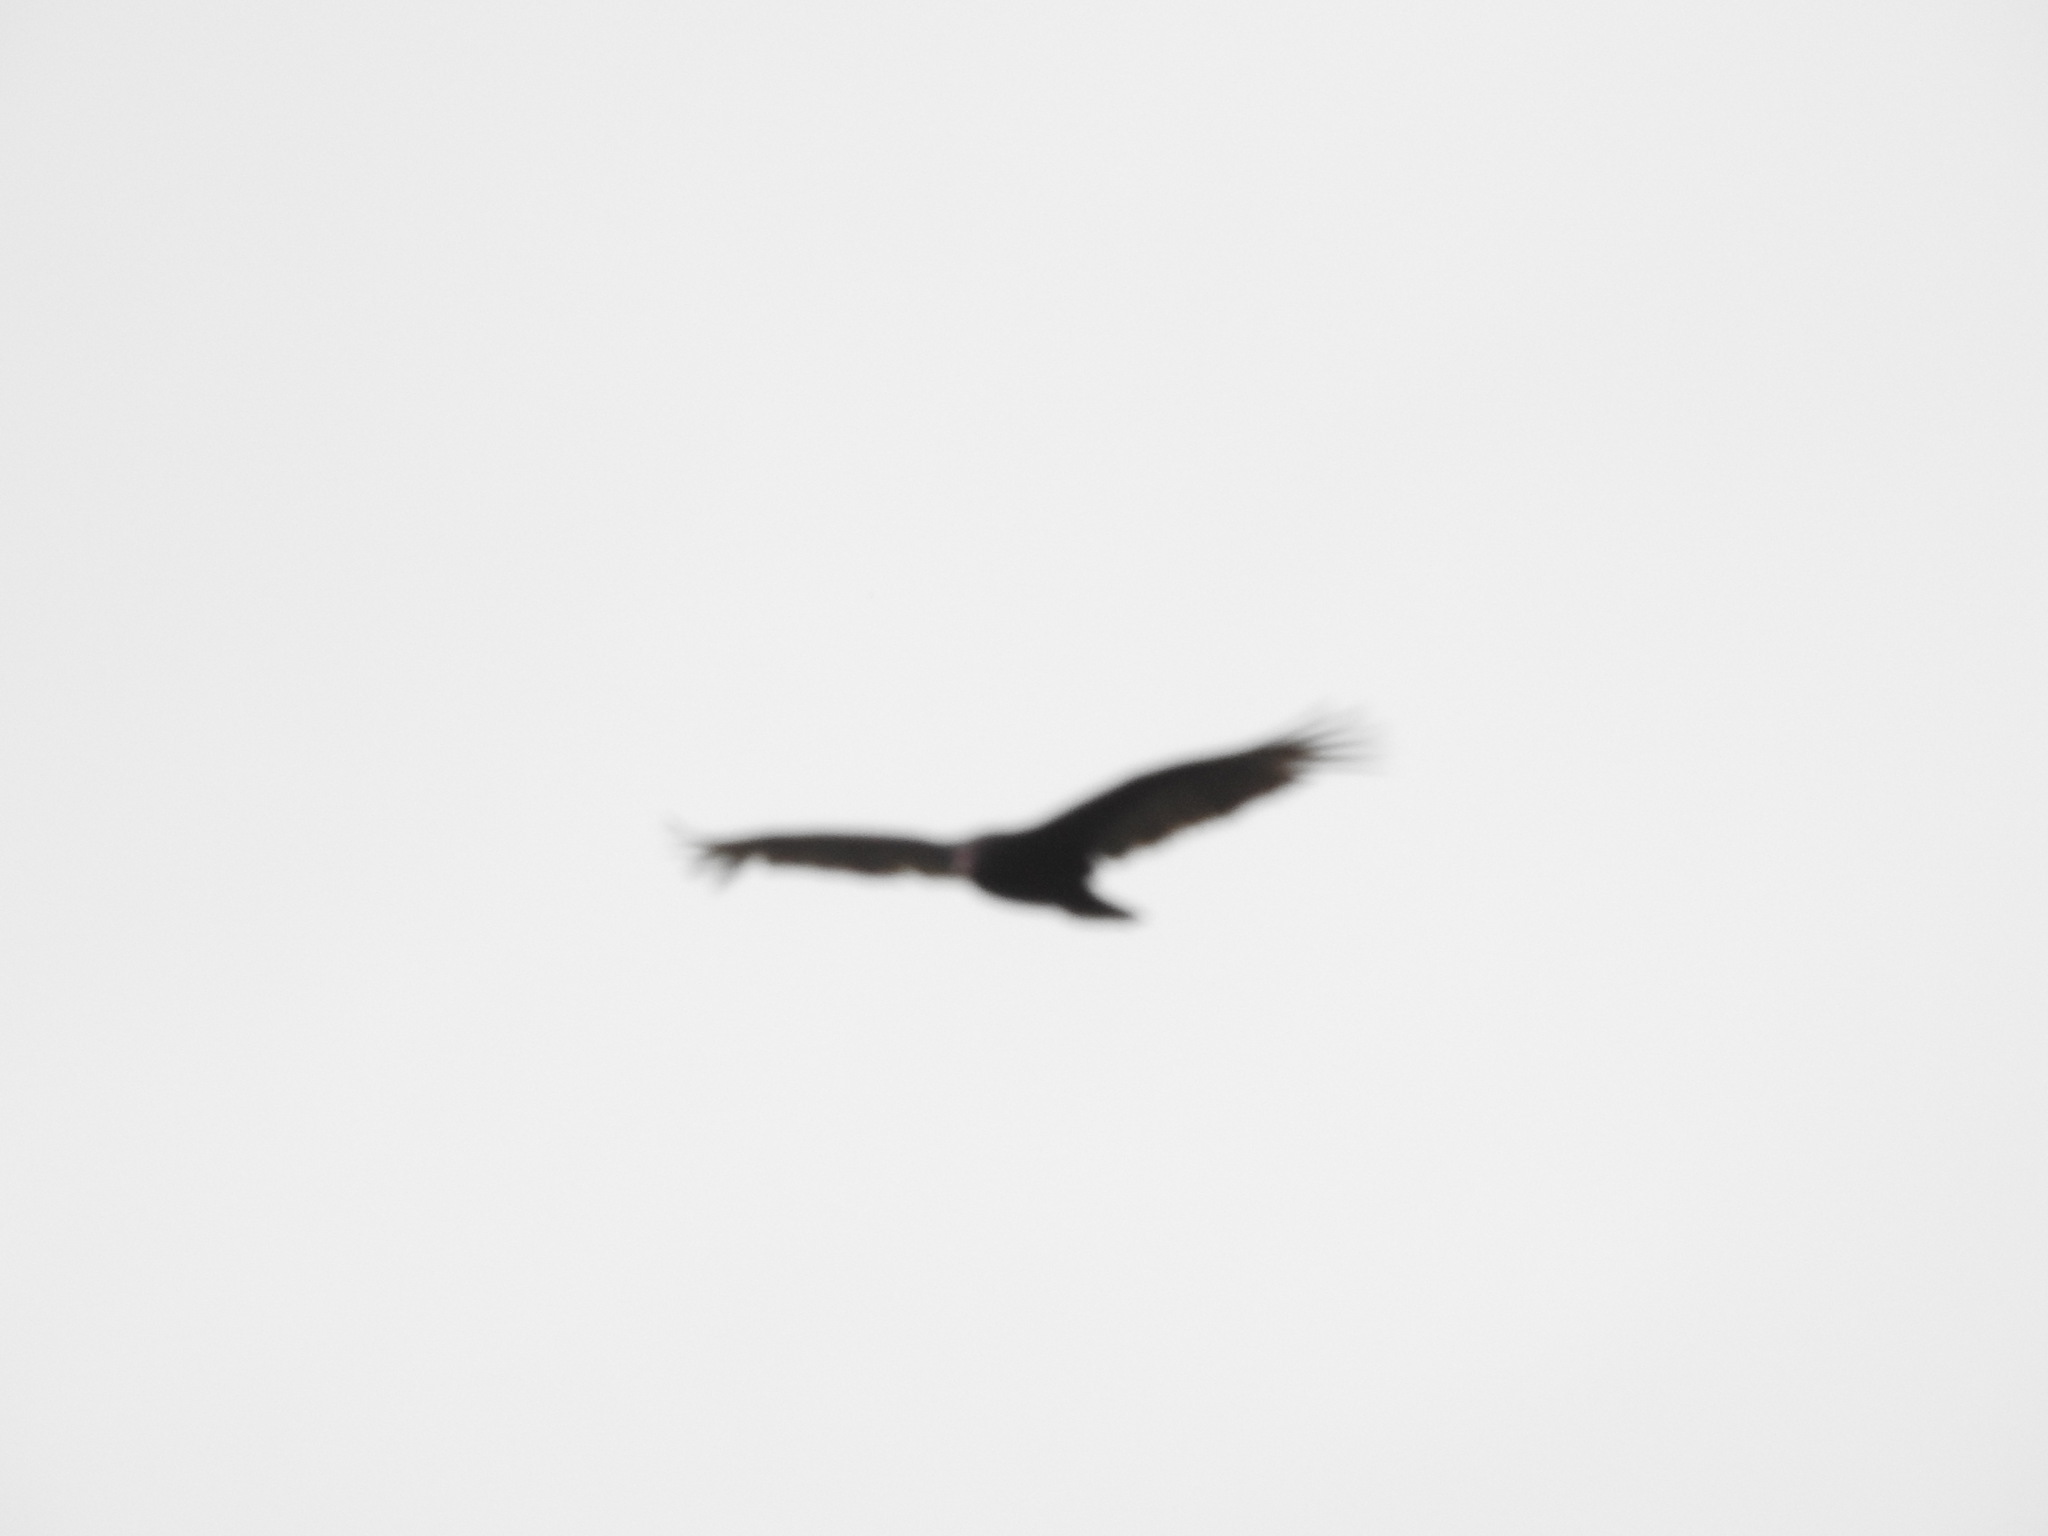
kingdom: Animalia
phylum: Chordata
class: Aves
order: Accipitriformes
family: Cathartidae
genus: Cathartes
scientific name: Cathartes aura
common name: Turkey vulture
